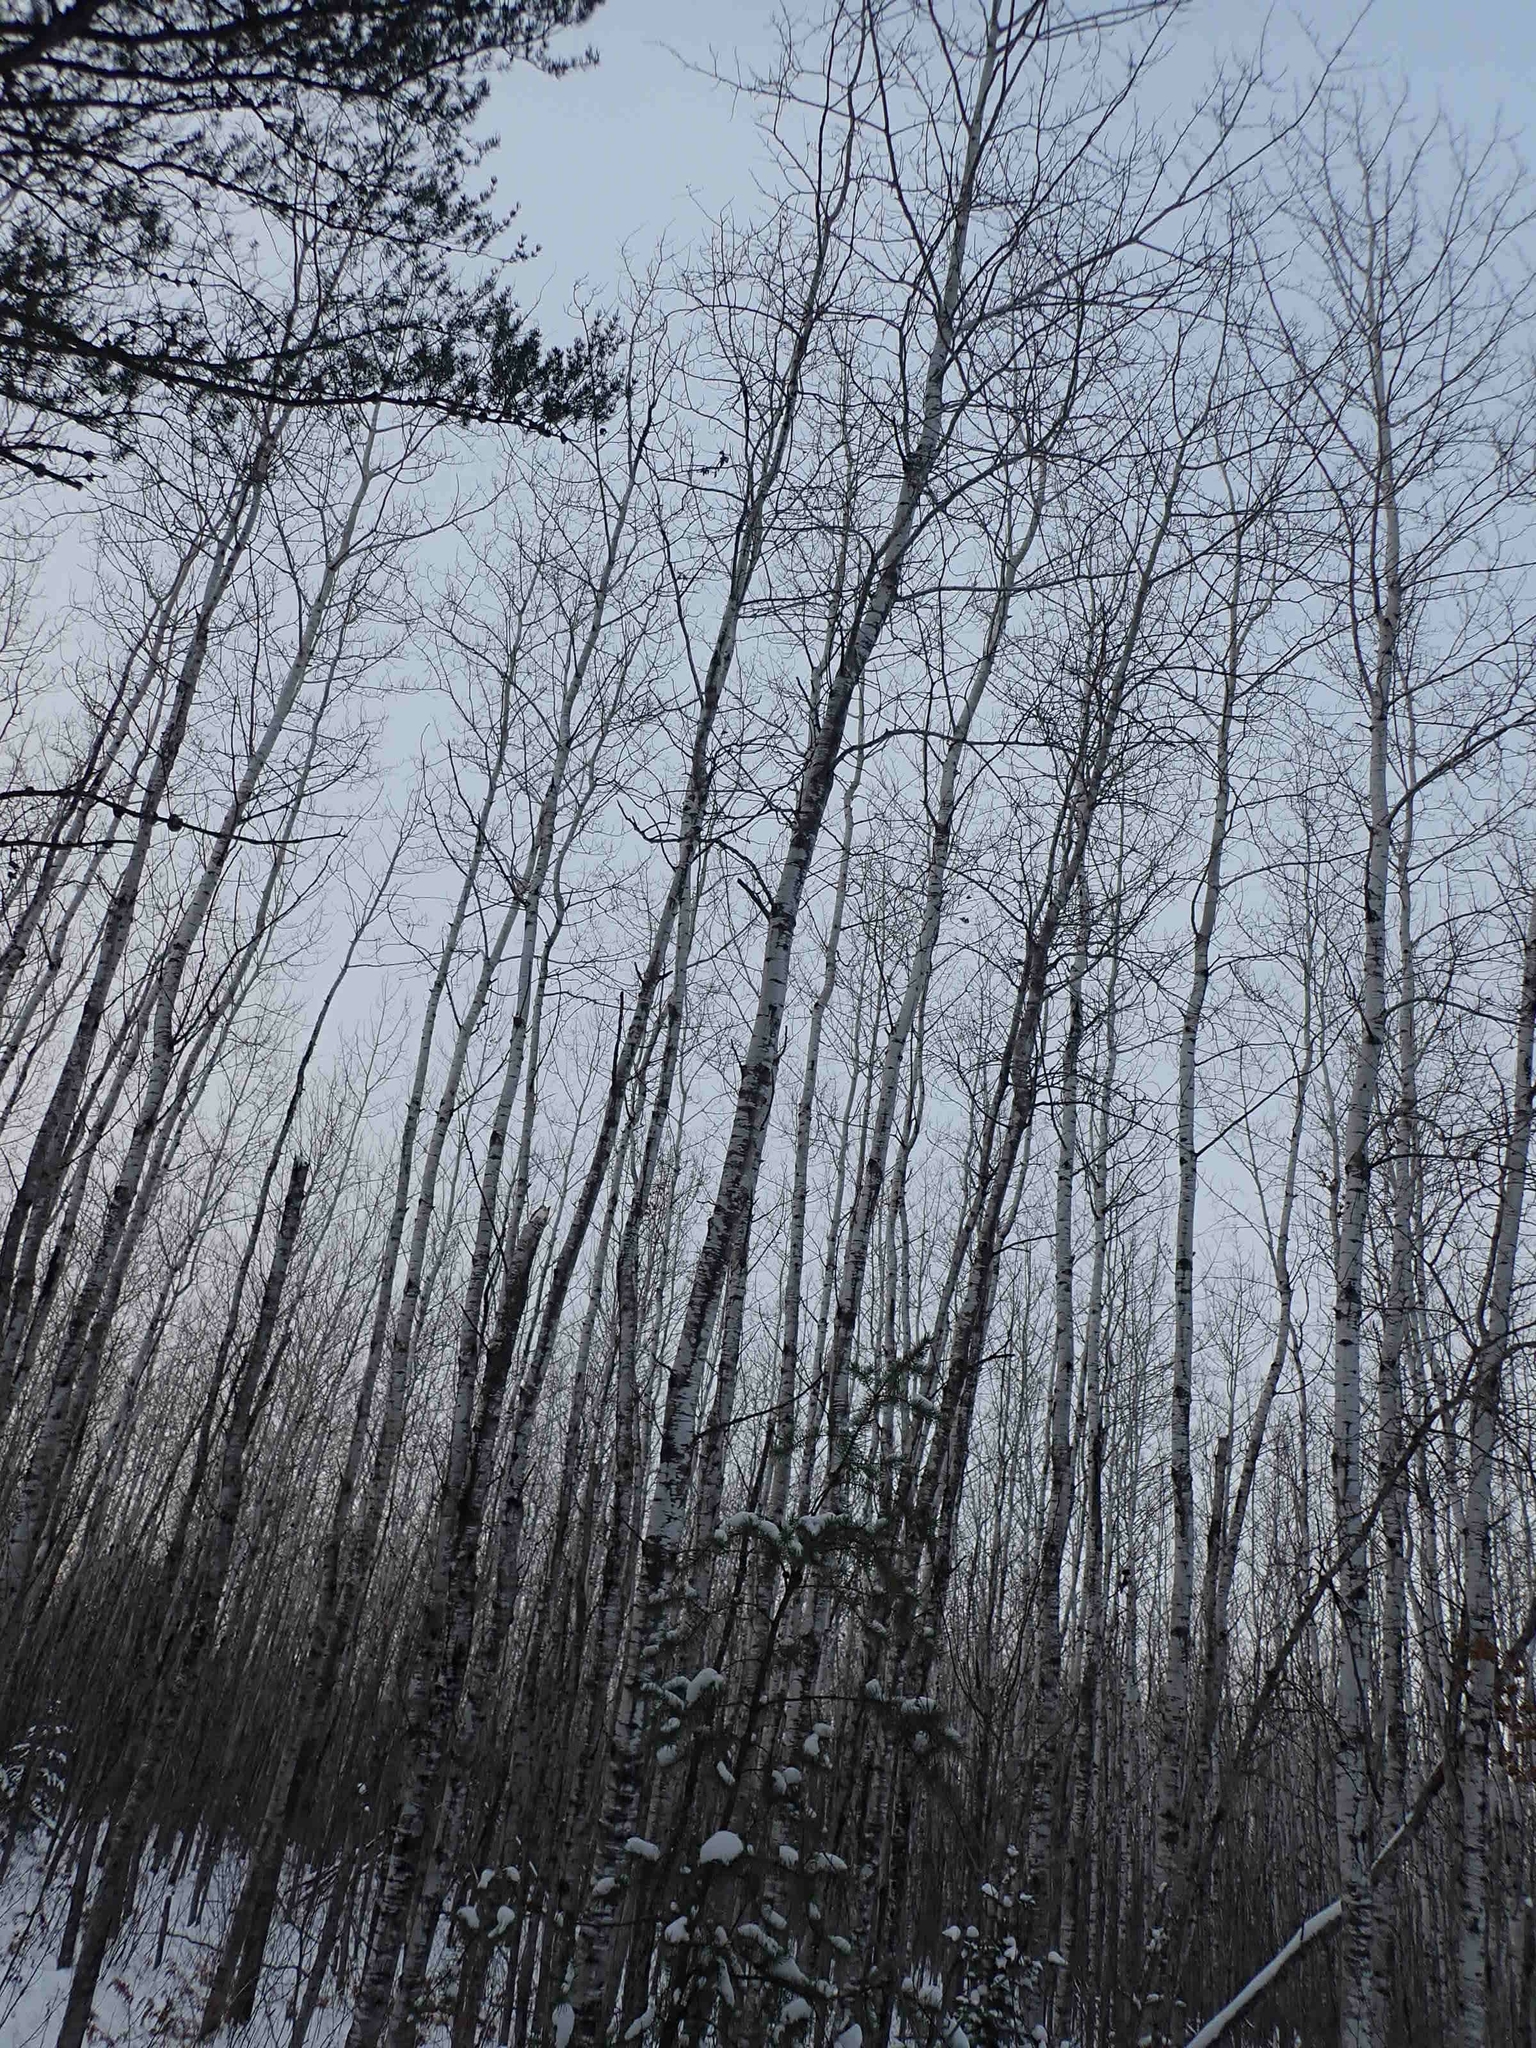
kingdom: Plantae
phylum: Tracheophyta
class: Magnoliopsida
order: Malpighiales
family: Salicaceae
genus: Populus
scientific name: Populus tremuloides
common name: Quaking aspen
